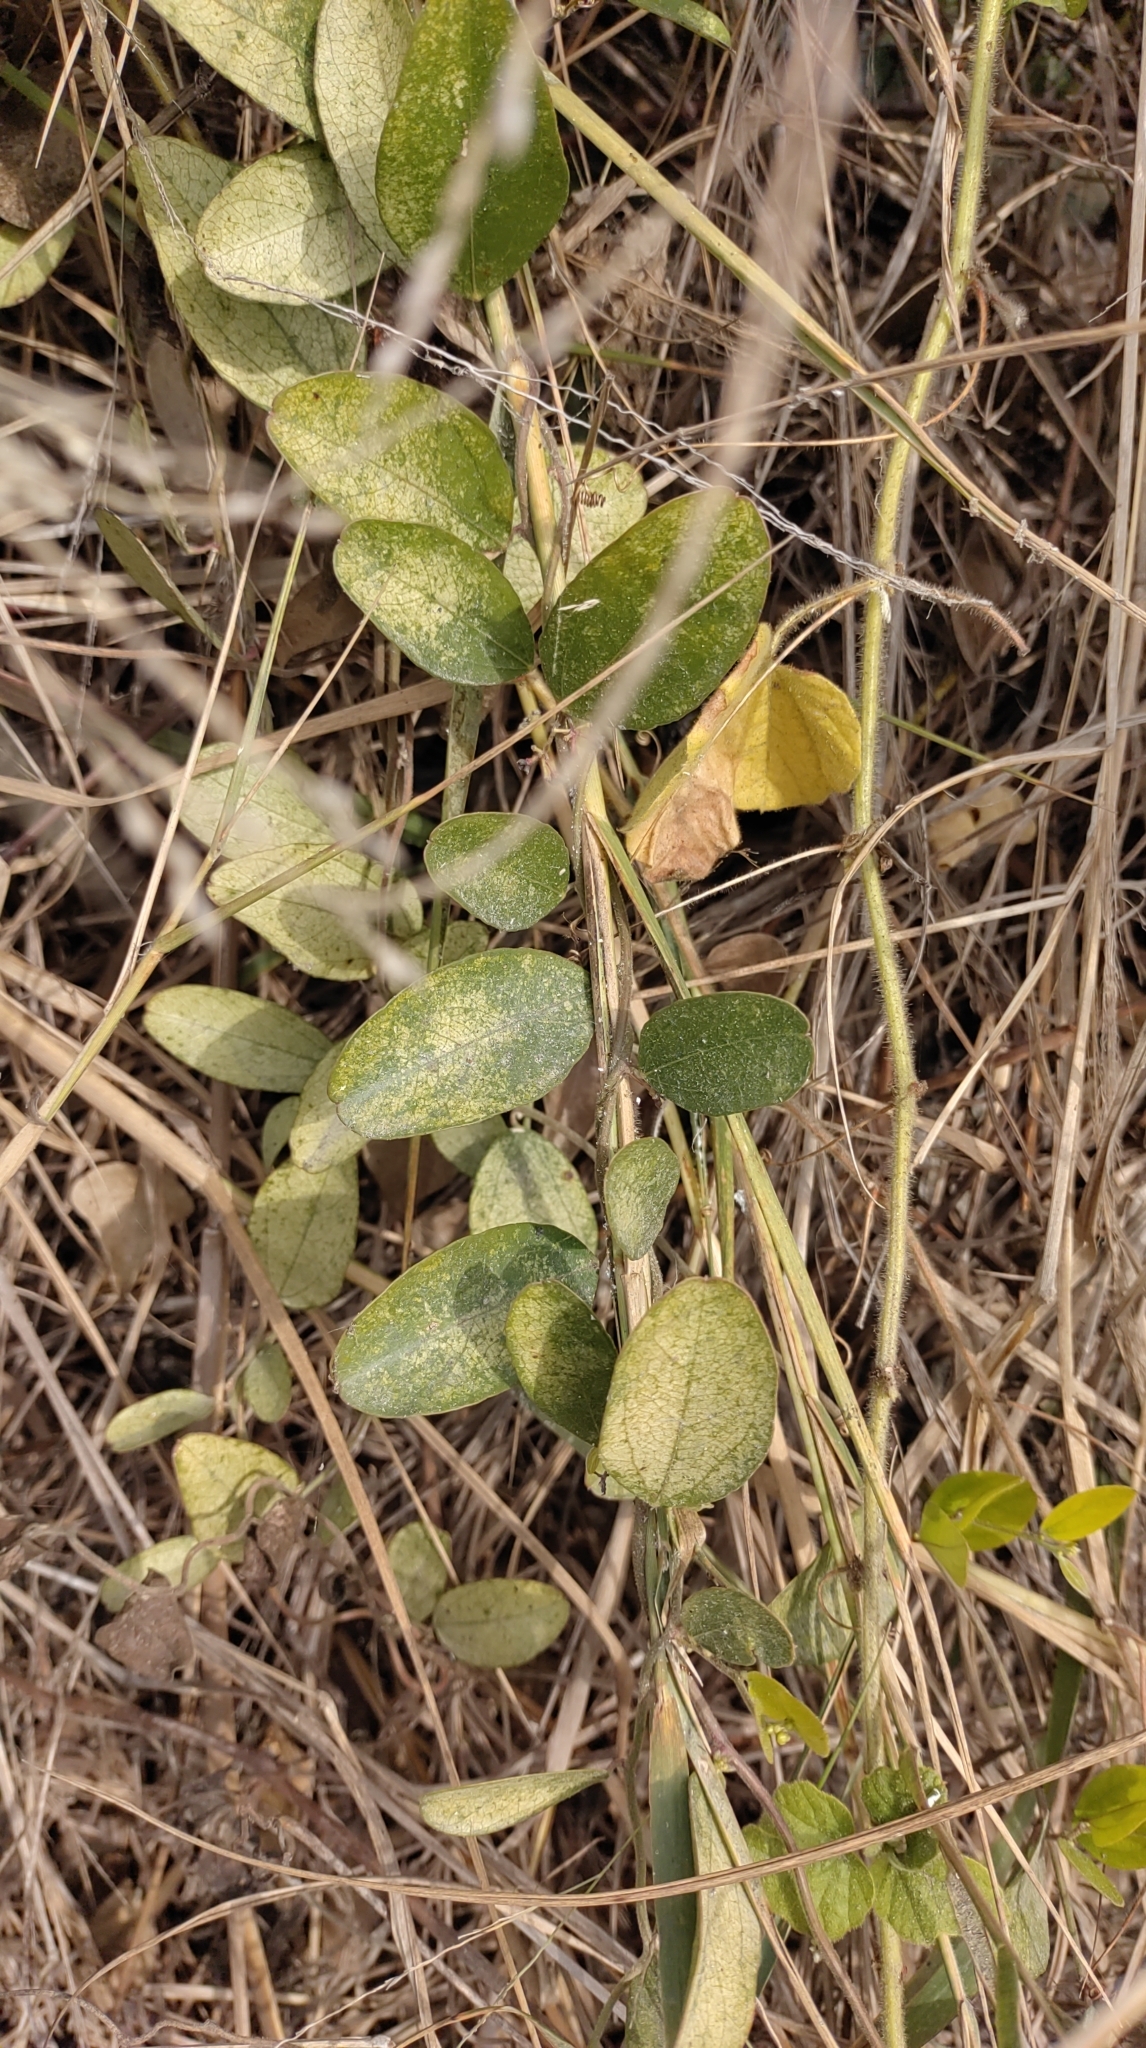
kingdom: Plantae
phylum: Tracheophyta
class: Magnoliopsida
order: Ranunculales
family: Menispermaceae
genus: Cocculus
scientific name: Cocculus orbiculatus
